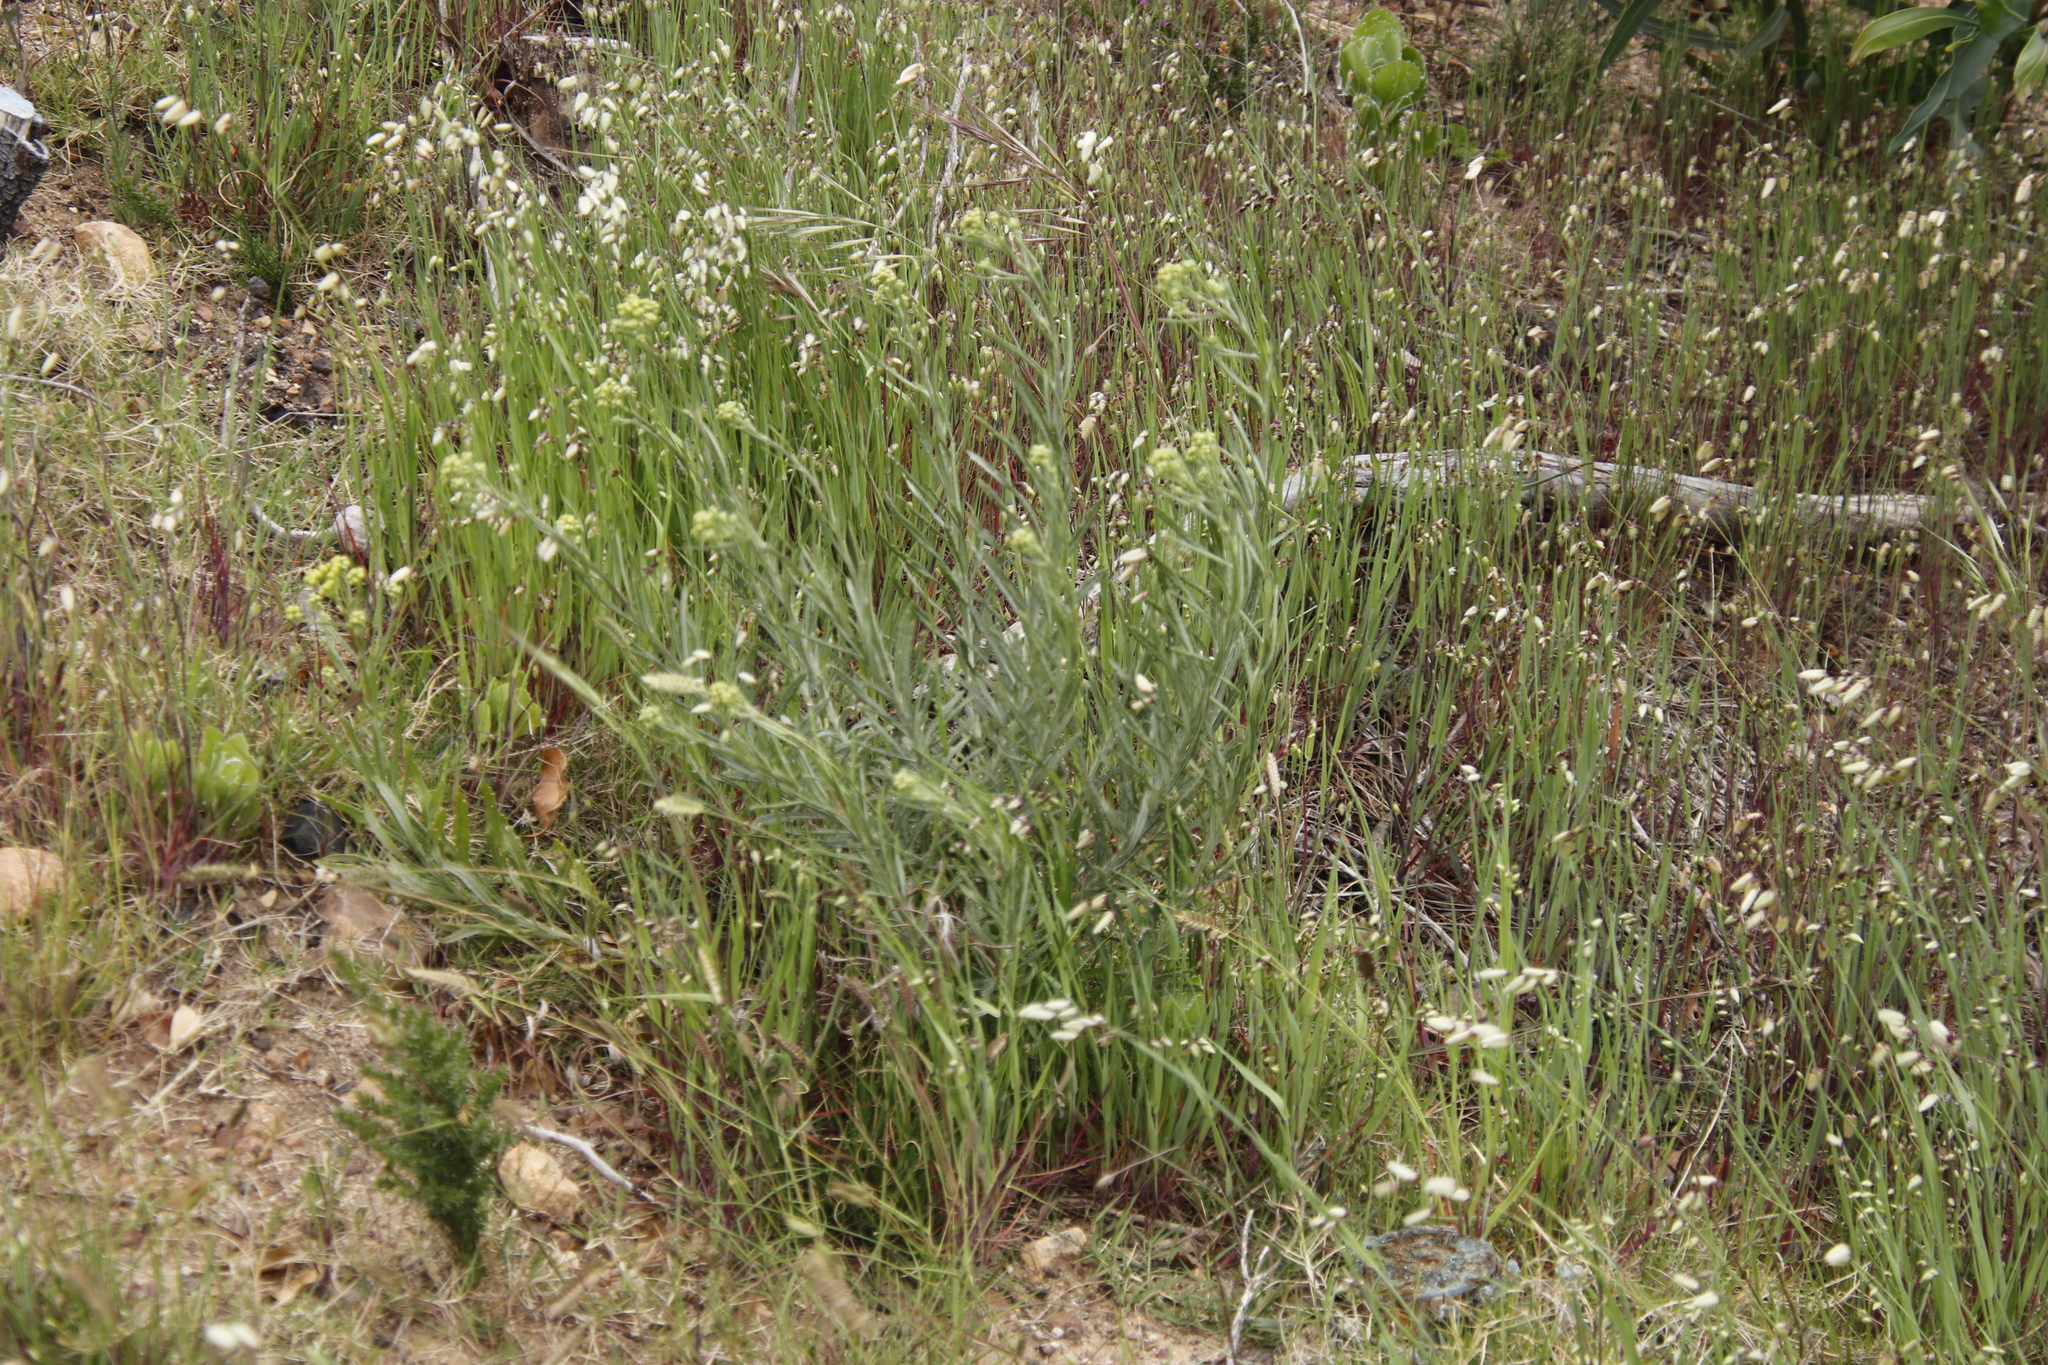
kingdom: Plantae
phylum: Tracheophyta
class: Magnoliopsida
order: Asterales
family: Asteraceae
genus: Senecio
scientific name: Senecio pterophorus
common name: Shoddy ragwort
